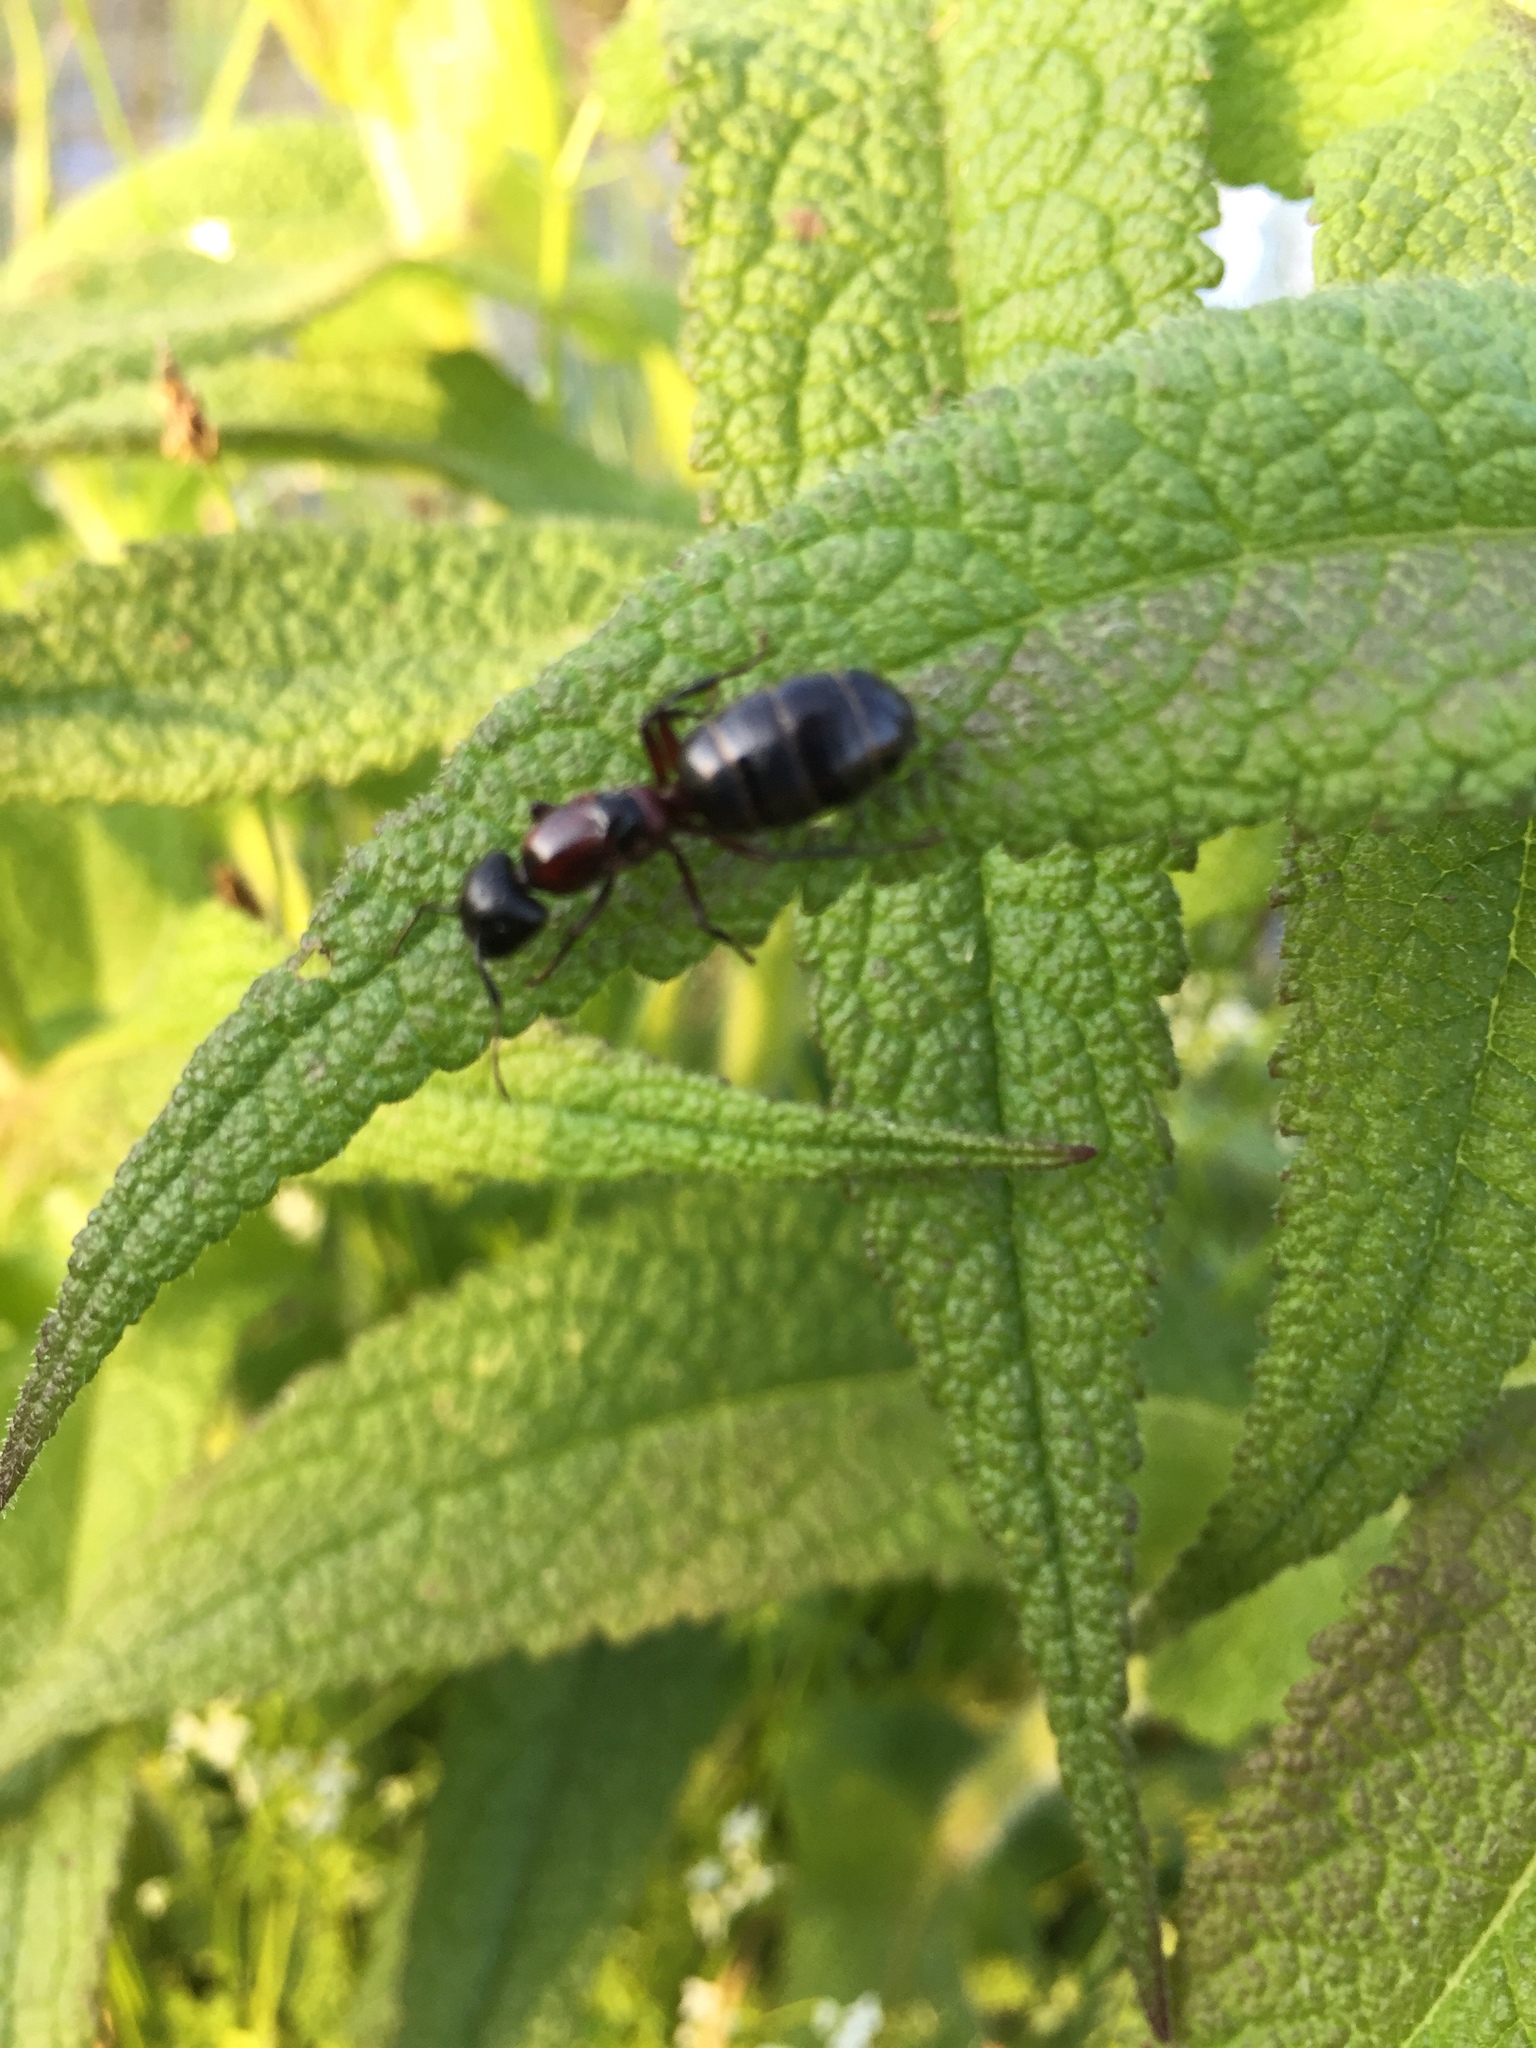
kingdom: Animalia
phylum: Arthropoda
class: Insecta
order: Hymenoptera
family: Formicidae
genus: Camponotus
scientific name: Camponotus novaeboracensis
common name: New york carpenter ant
